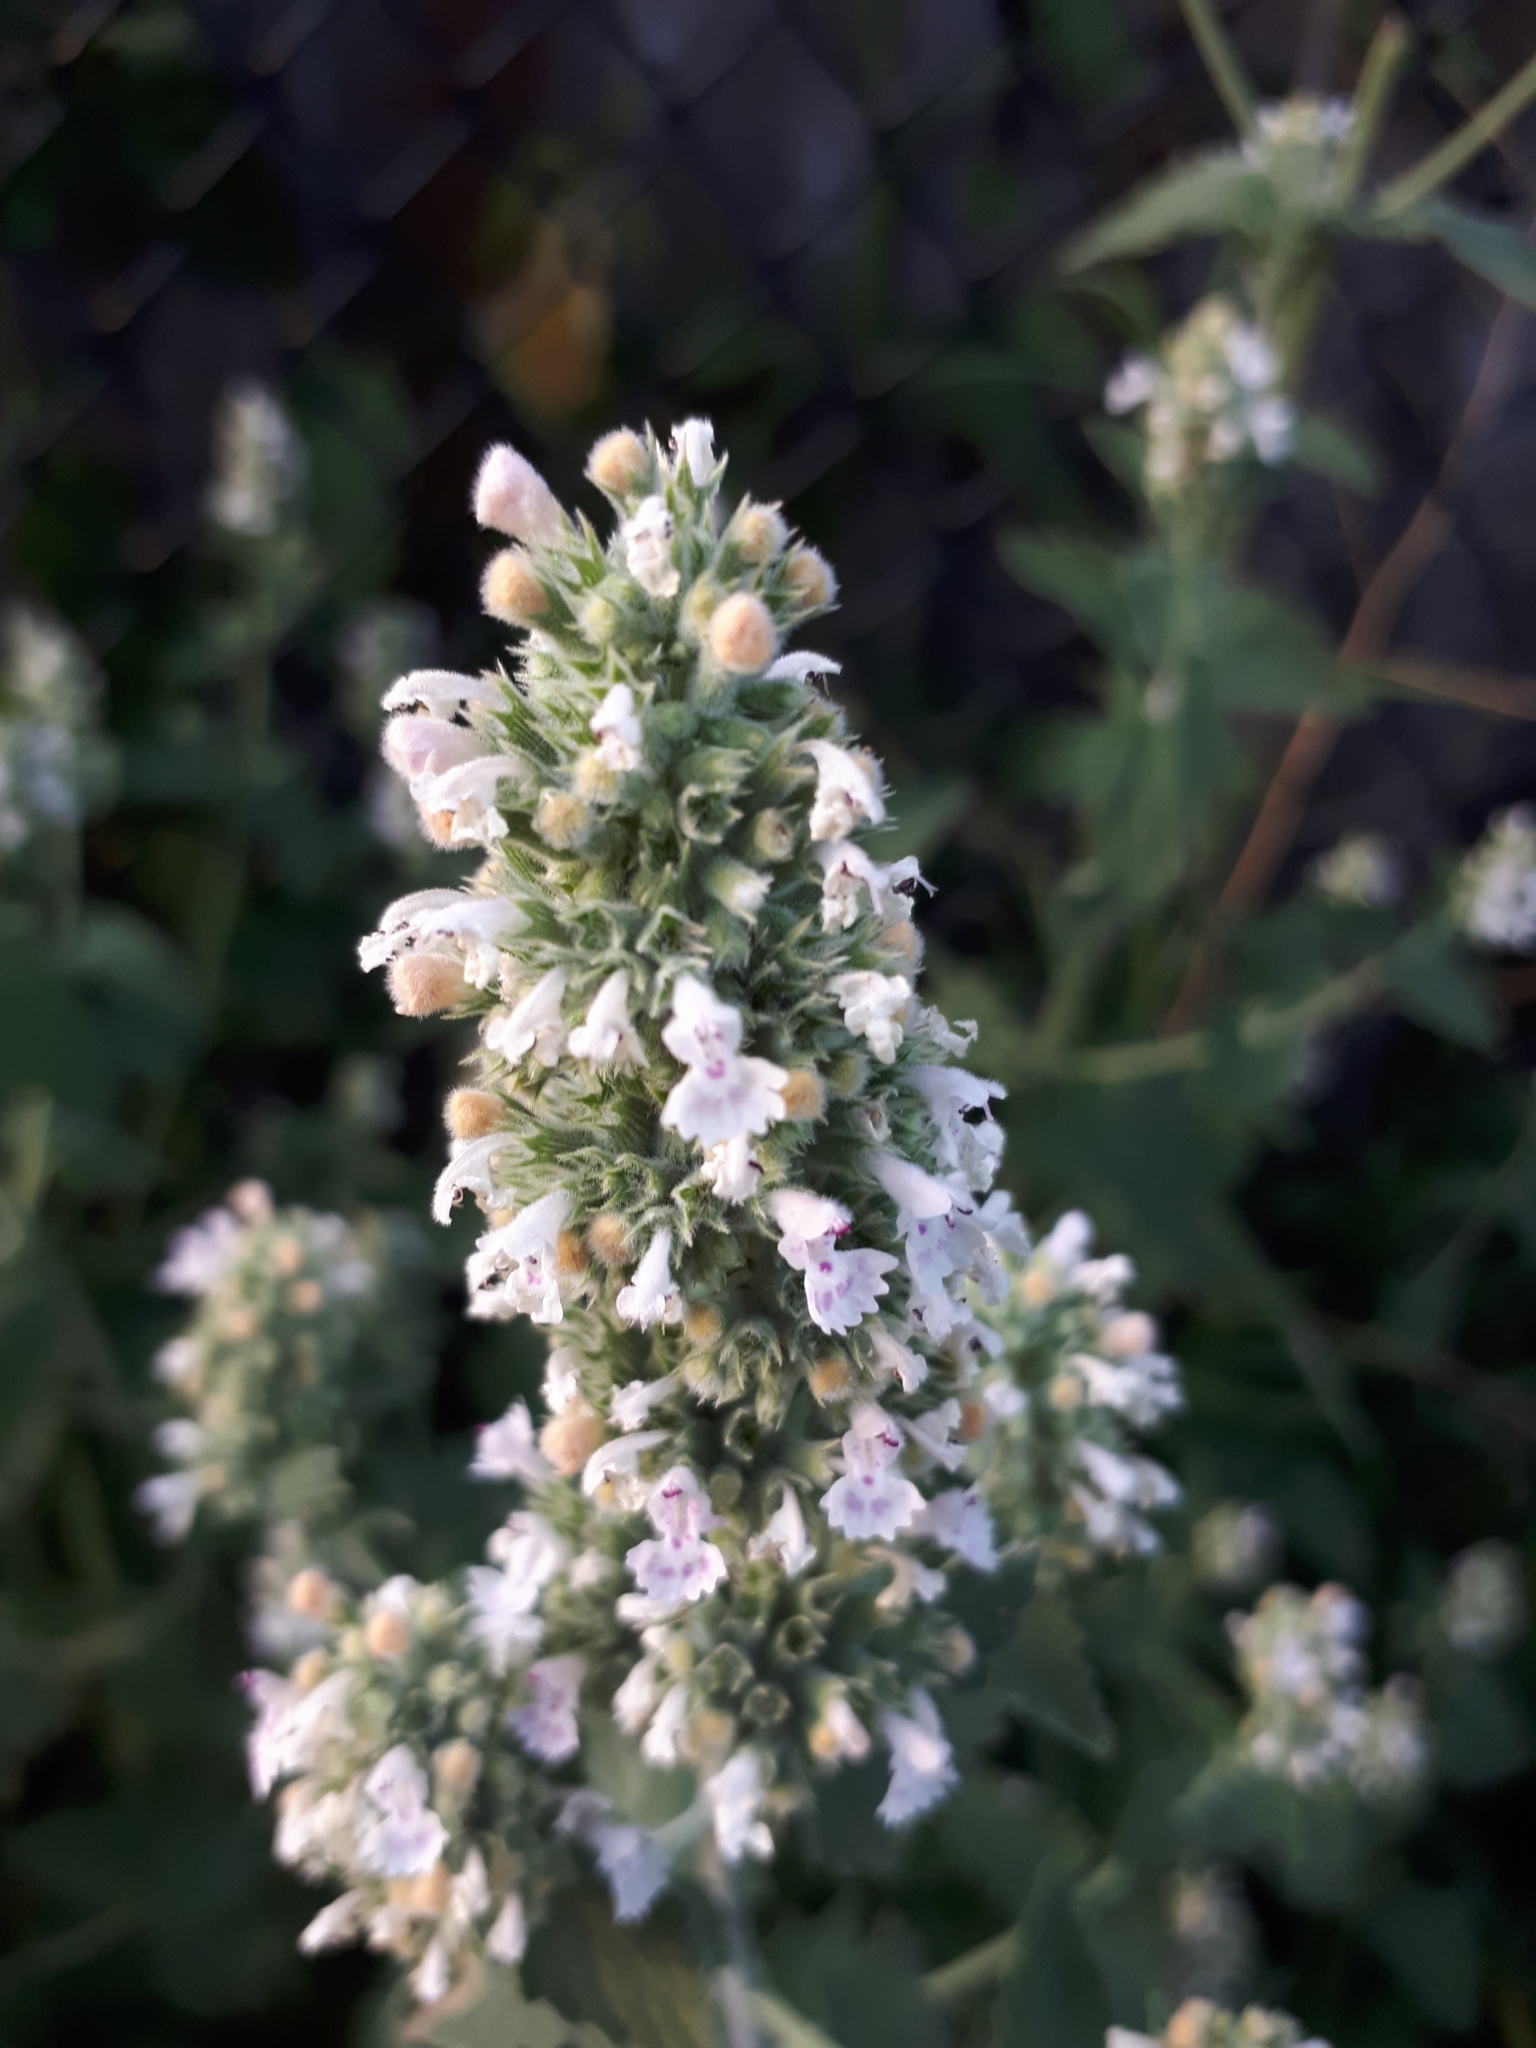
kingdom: Plantae
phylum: Tracheophyta
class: Magnoliopsida
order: Lamiales
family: Lamiaceae
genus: Nepeta
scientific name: Nepeta cataria
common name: Catnip
